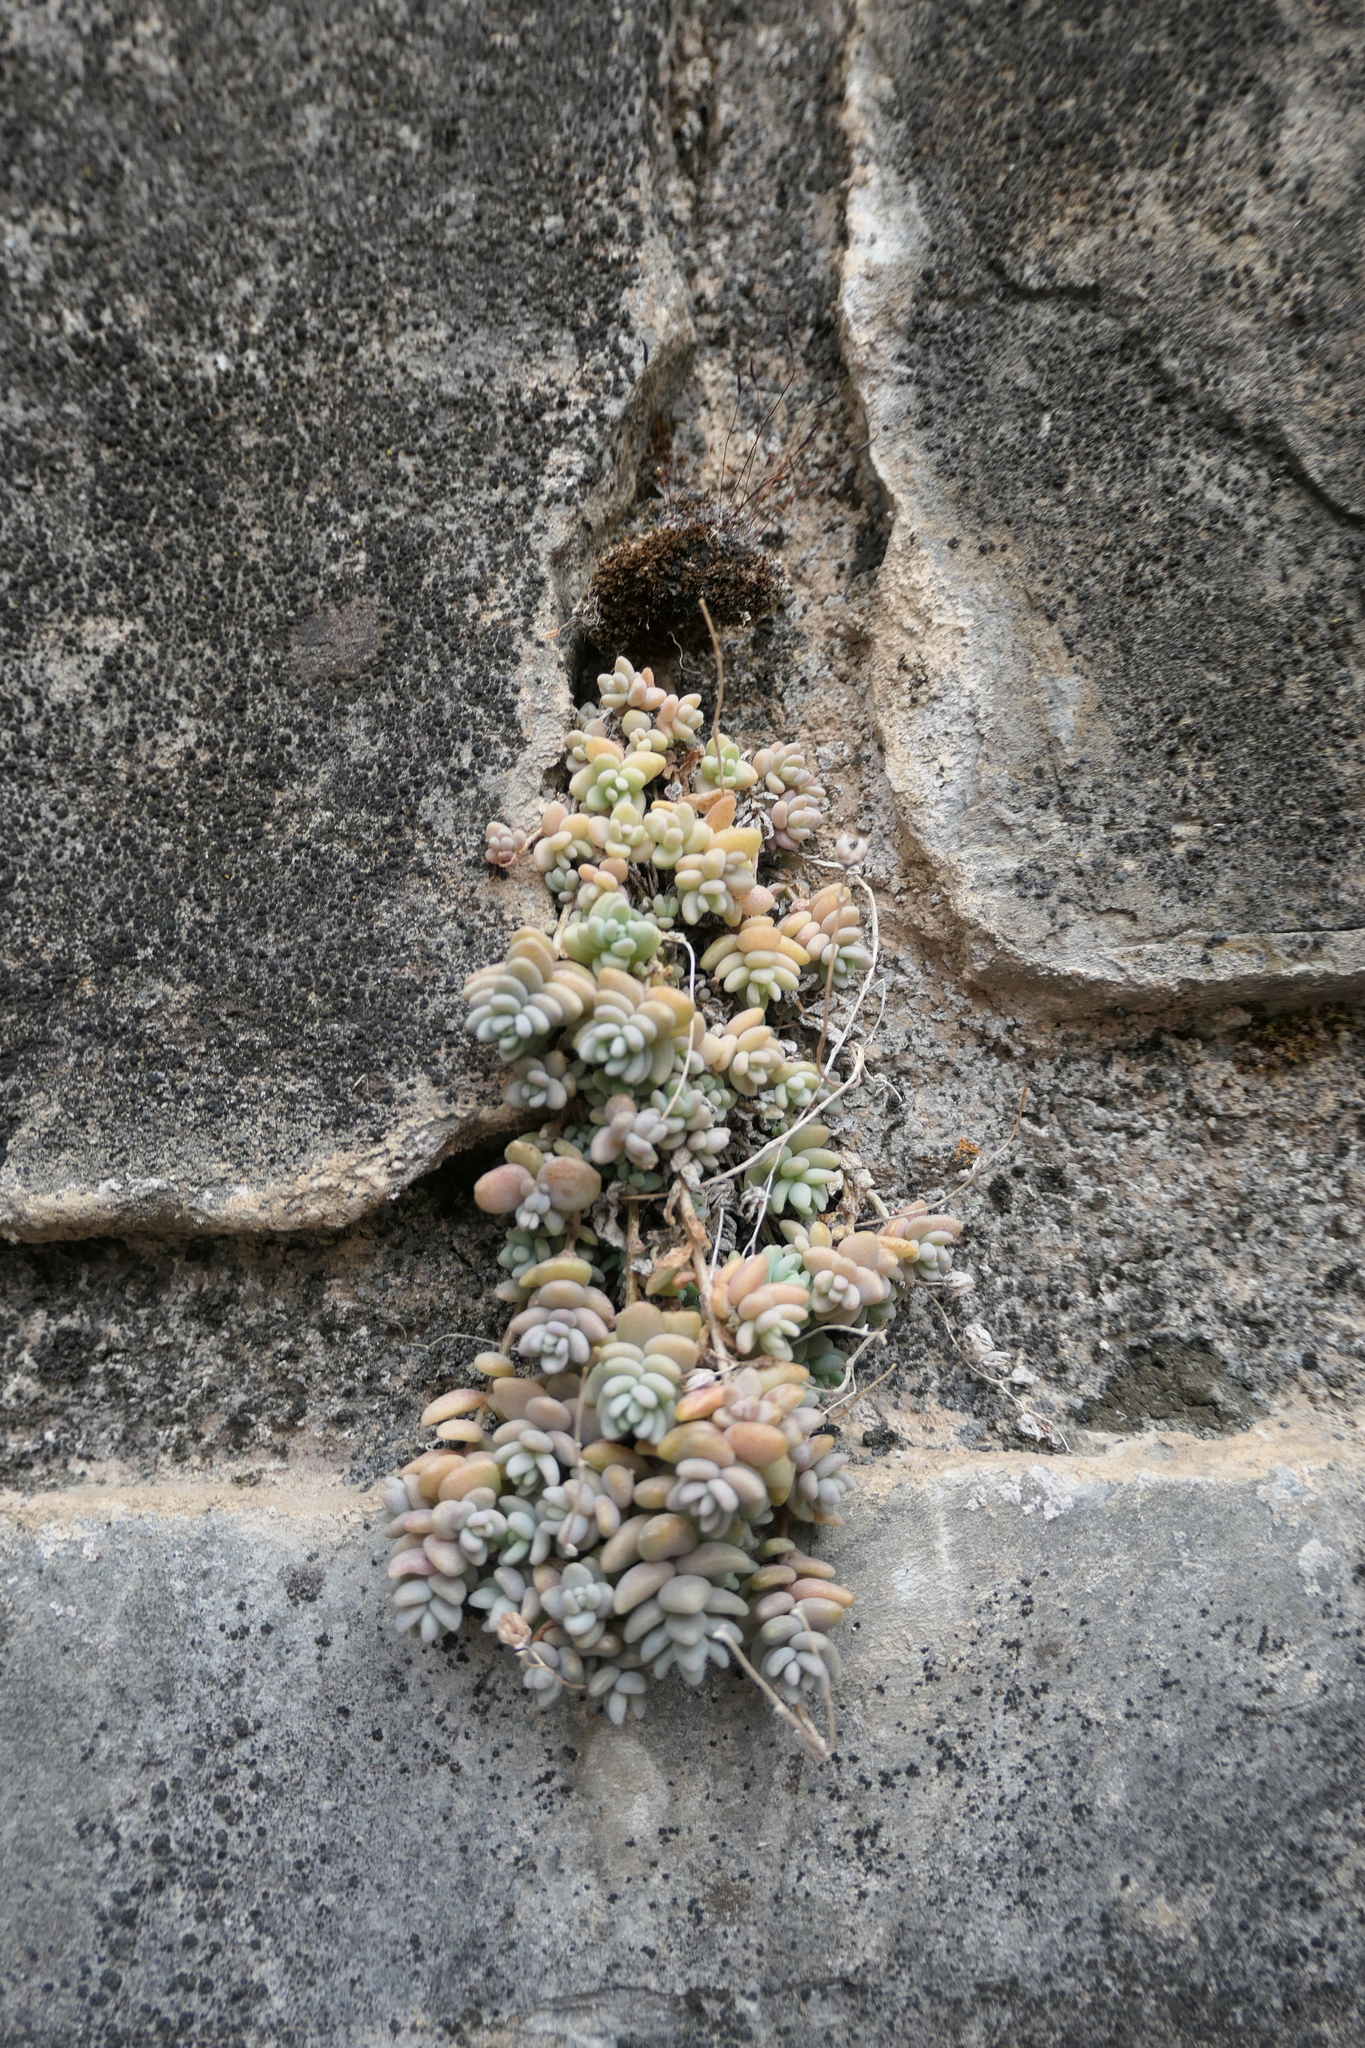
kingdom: Plantae
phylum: Tracheophyta
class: Magnoliopsida
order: Saxifragales
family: Crassulaceae
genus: Sedum
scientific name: Sedum dasyphyllum
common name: Thick-leaf stonecrop
